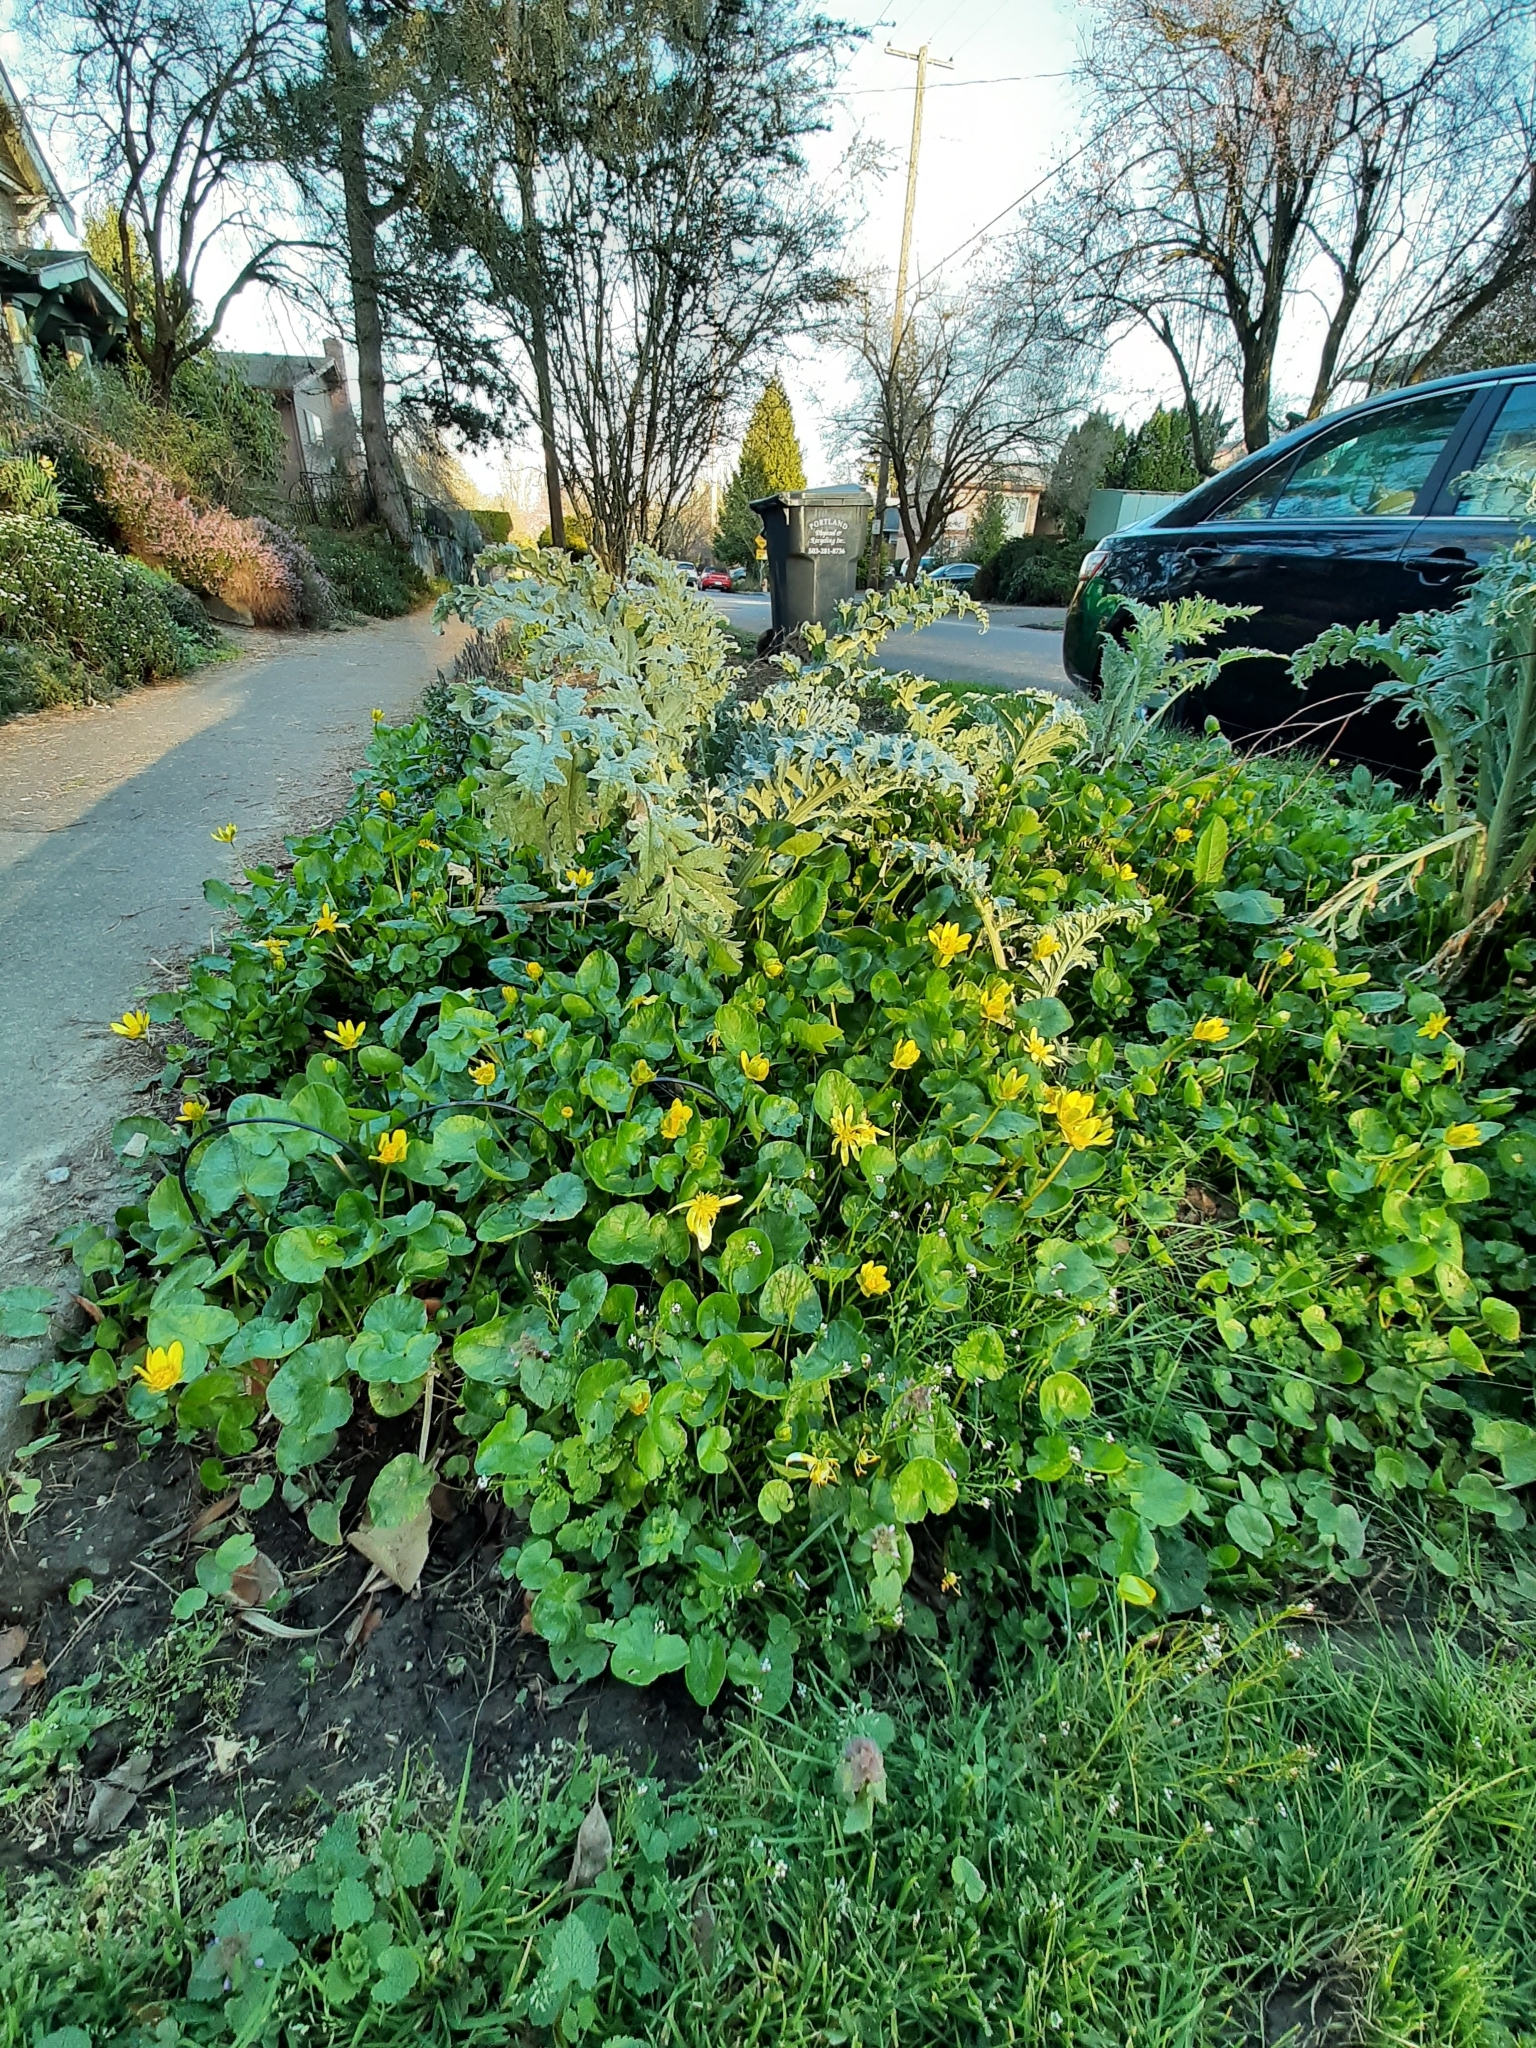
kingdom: Plantae
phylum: Tracheophyta
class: Magnoliopsida
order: Ranunculales
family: Ranunculaceae
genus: Ficaria
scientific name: Ficaria verna
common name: Lesser celandine
